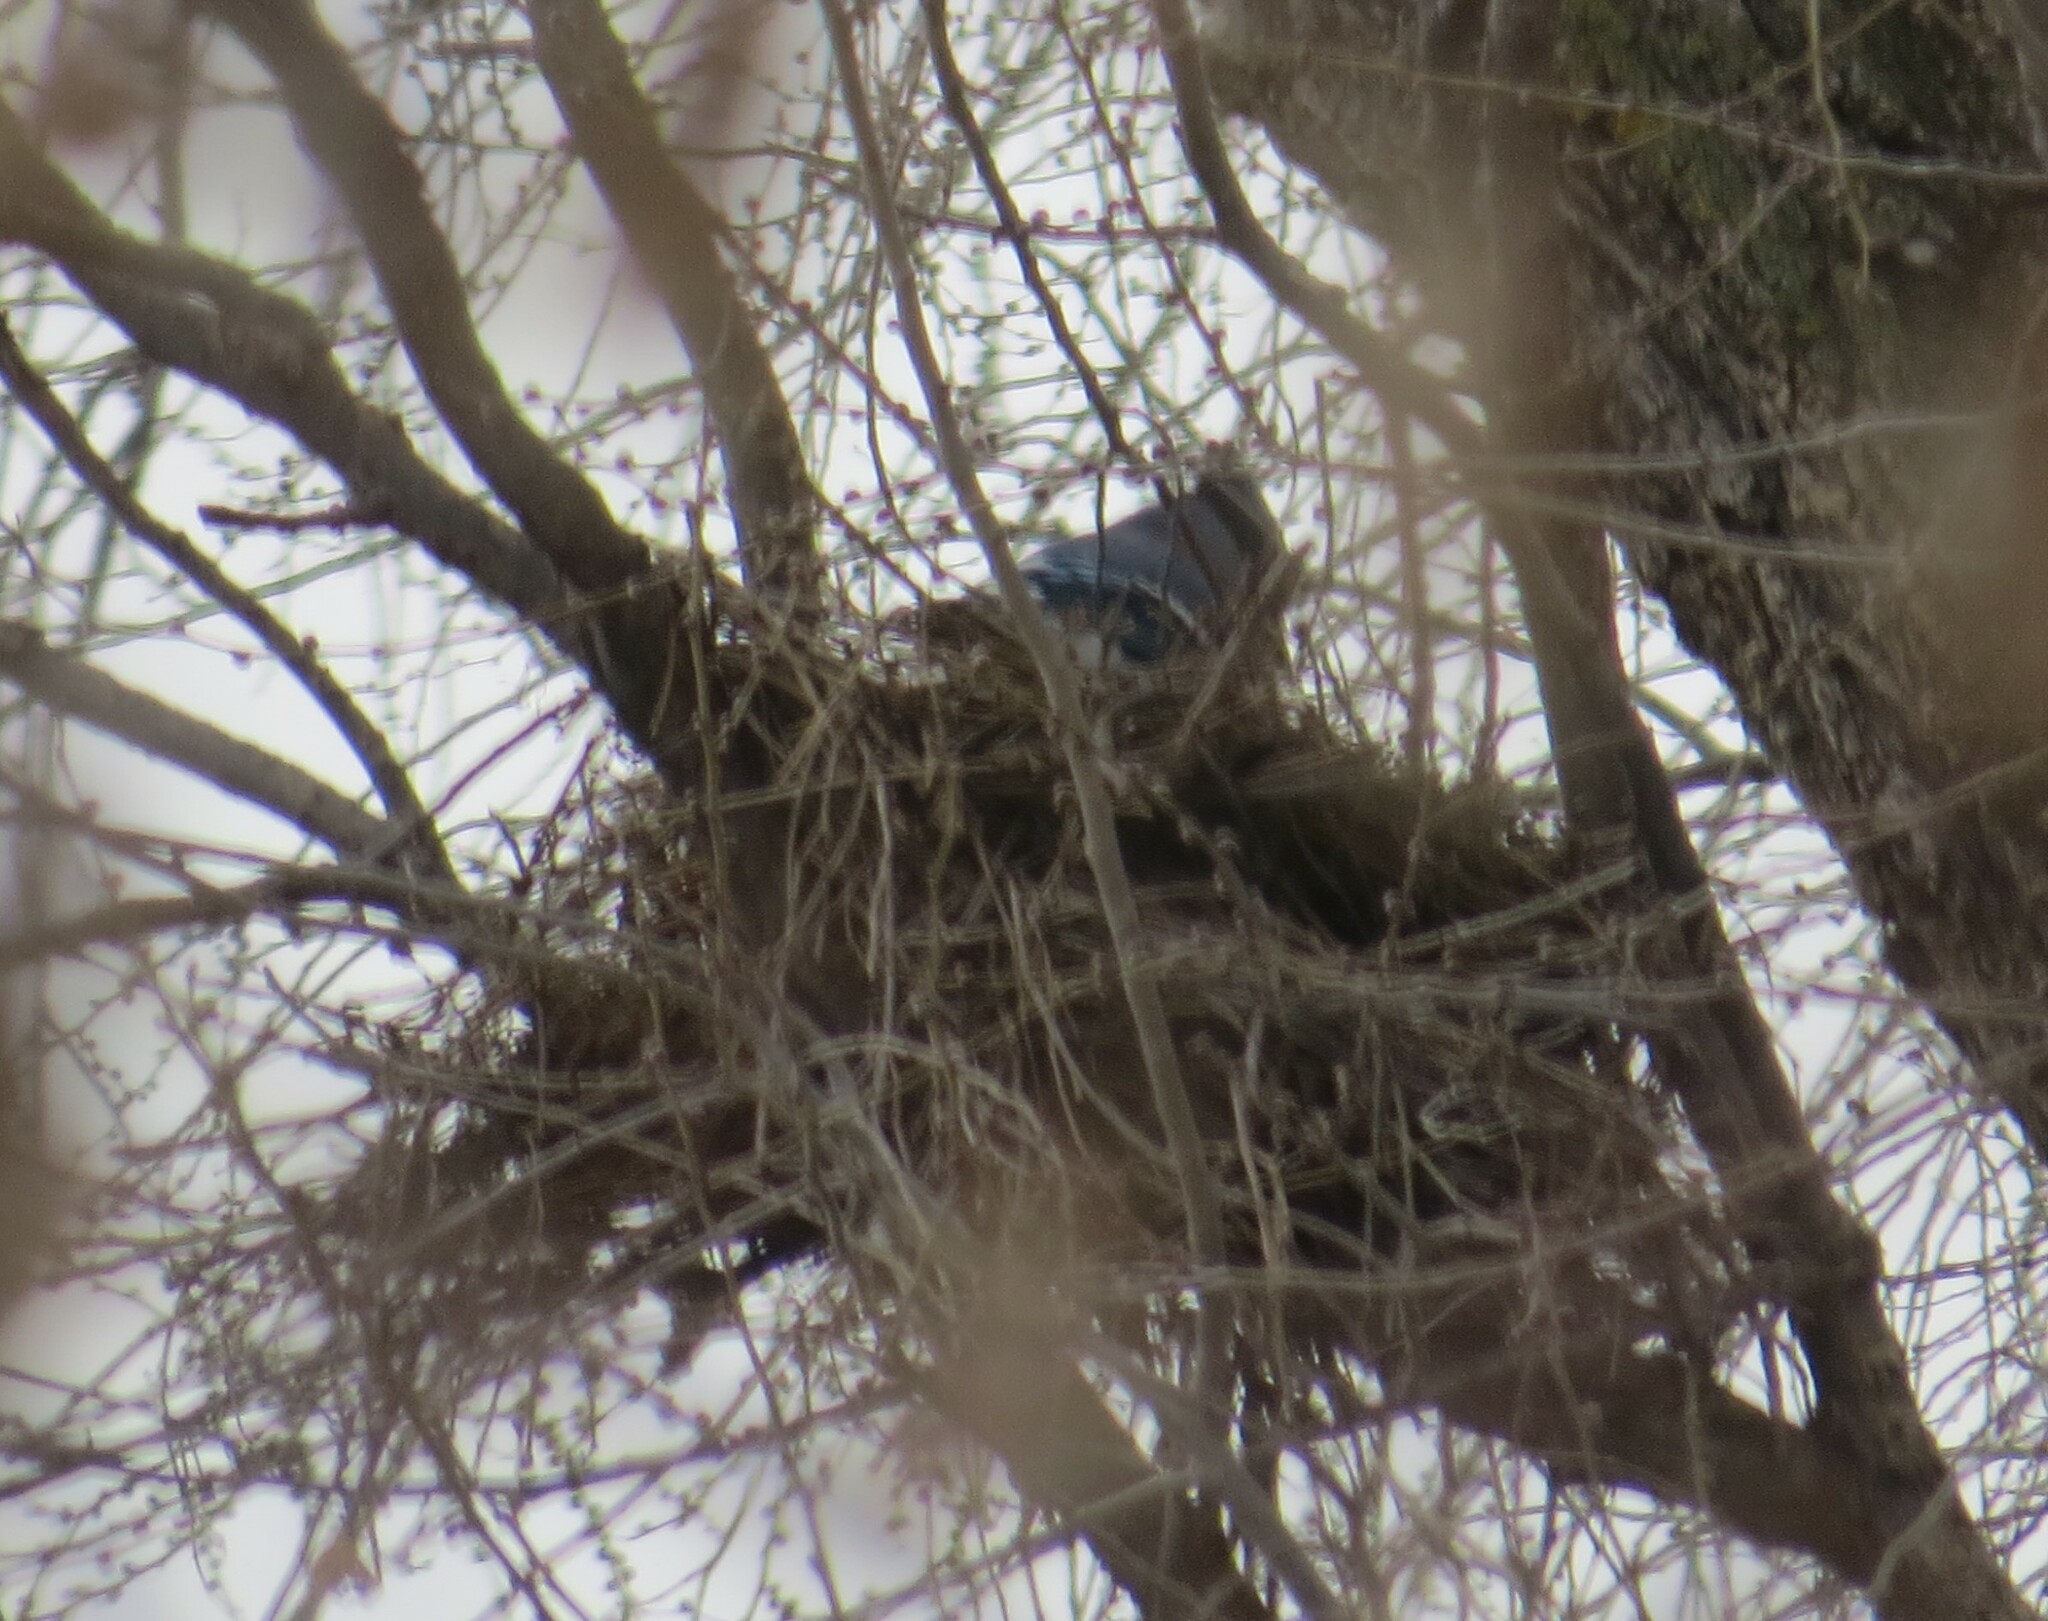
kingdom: Animalia
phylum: Chordata
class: Aves
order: Passeriformes
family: Corvidae
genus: Cyanocitta
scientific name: Cyanocitta cristata
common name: Blue jay
